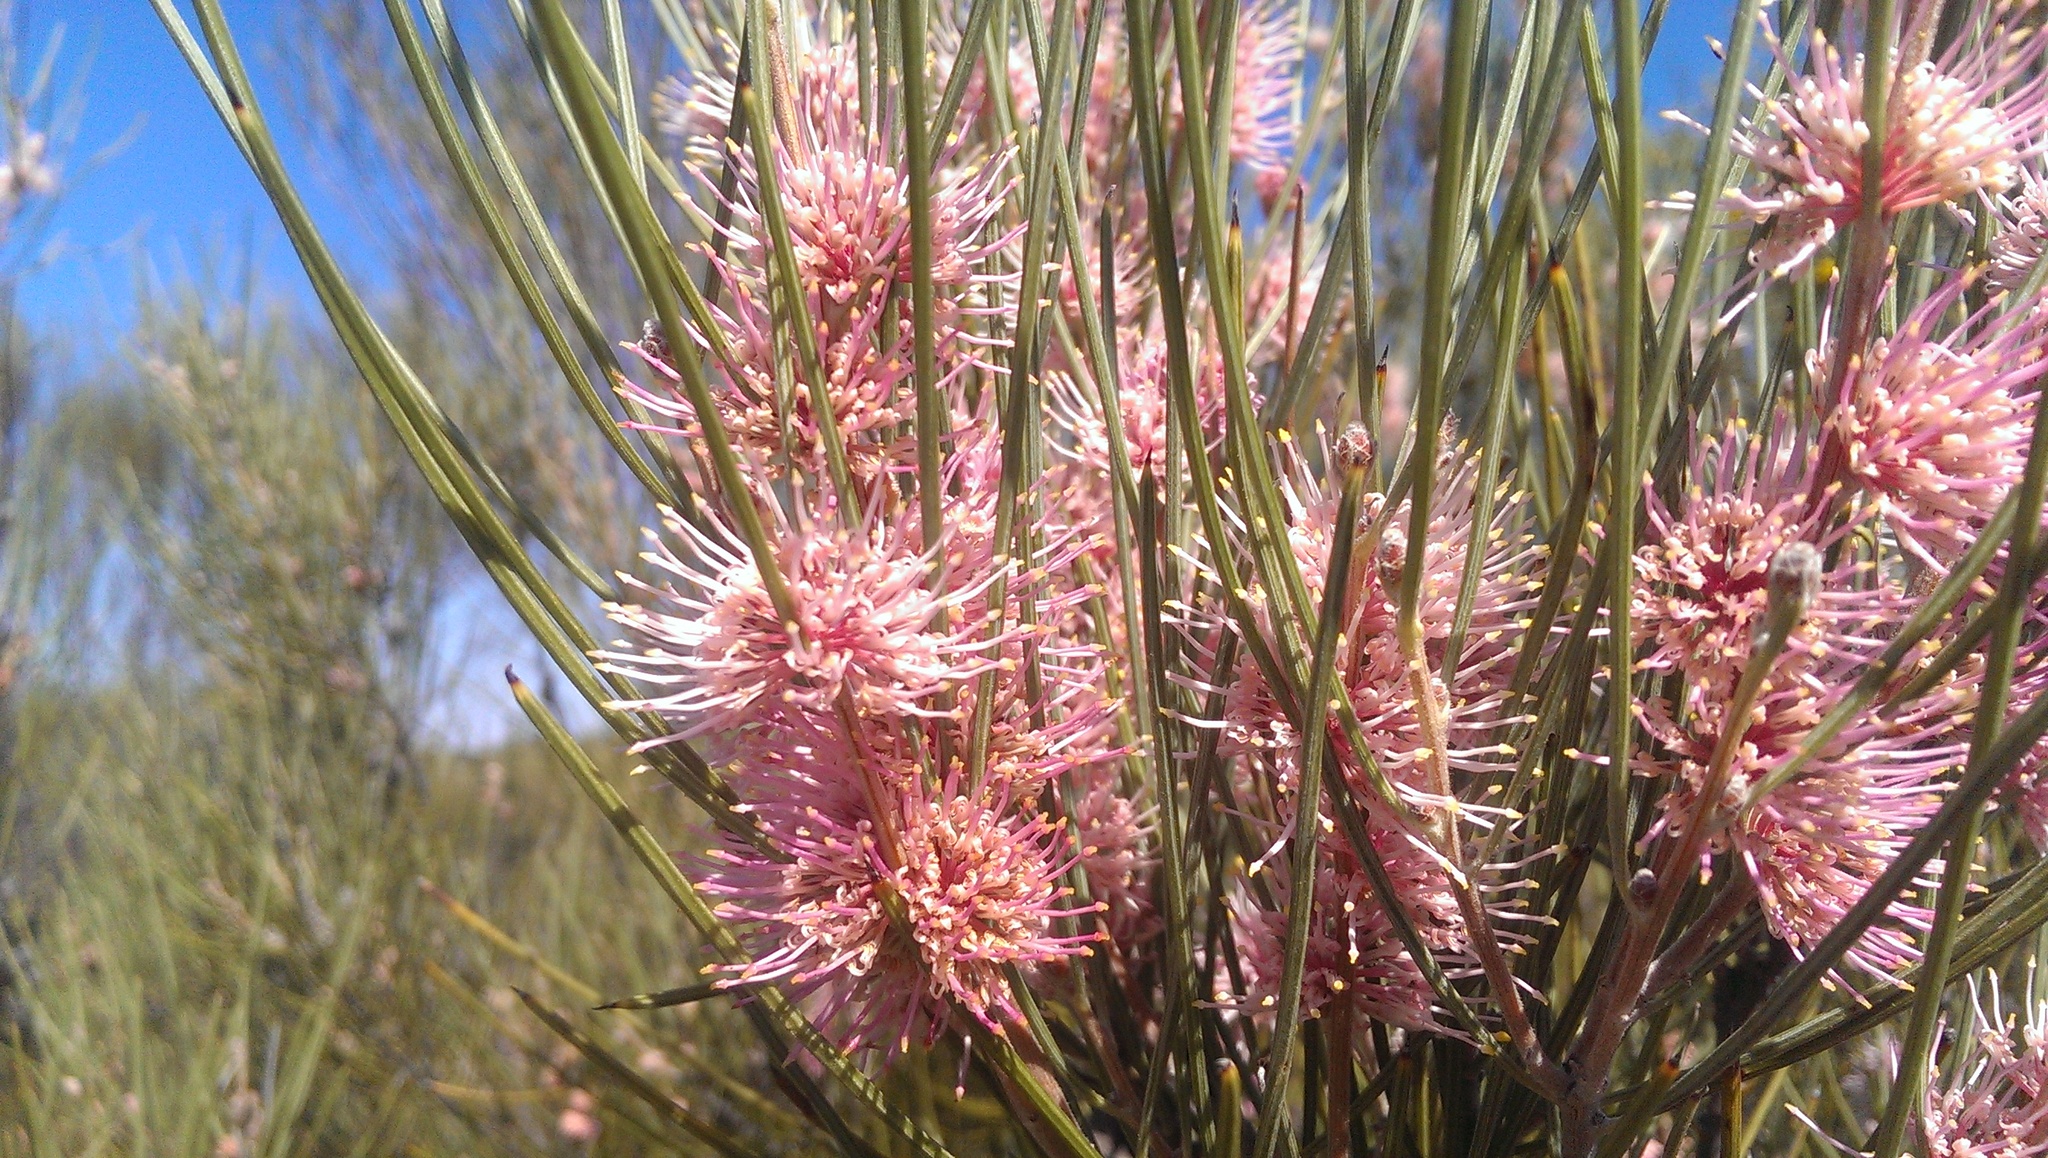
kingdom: Plantae
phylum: Tracheophyta
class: Magnoliopsida
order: Proteales
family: Proteaceae
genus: Hakea
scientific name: Hakea scoparia
